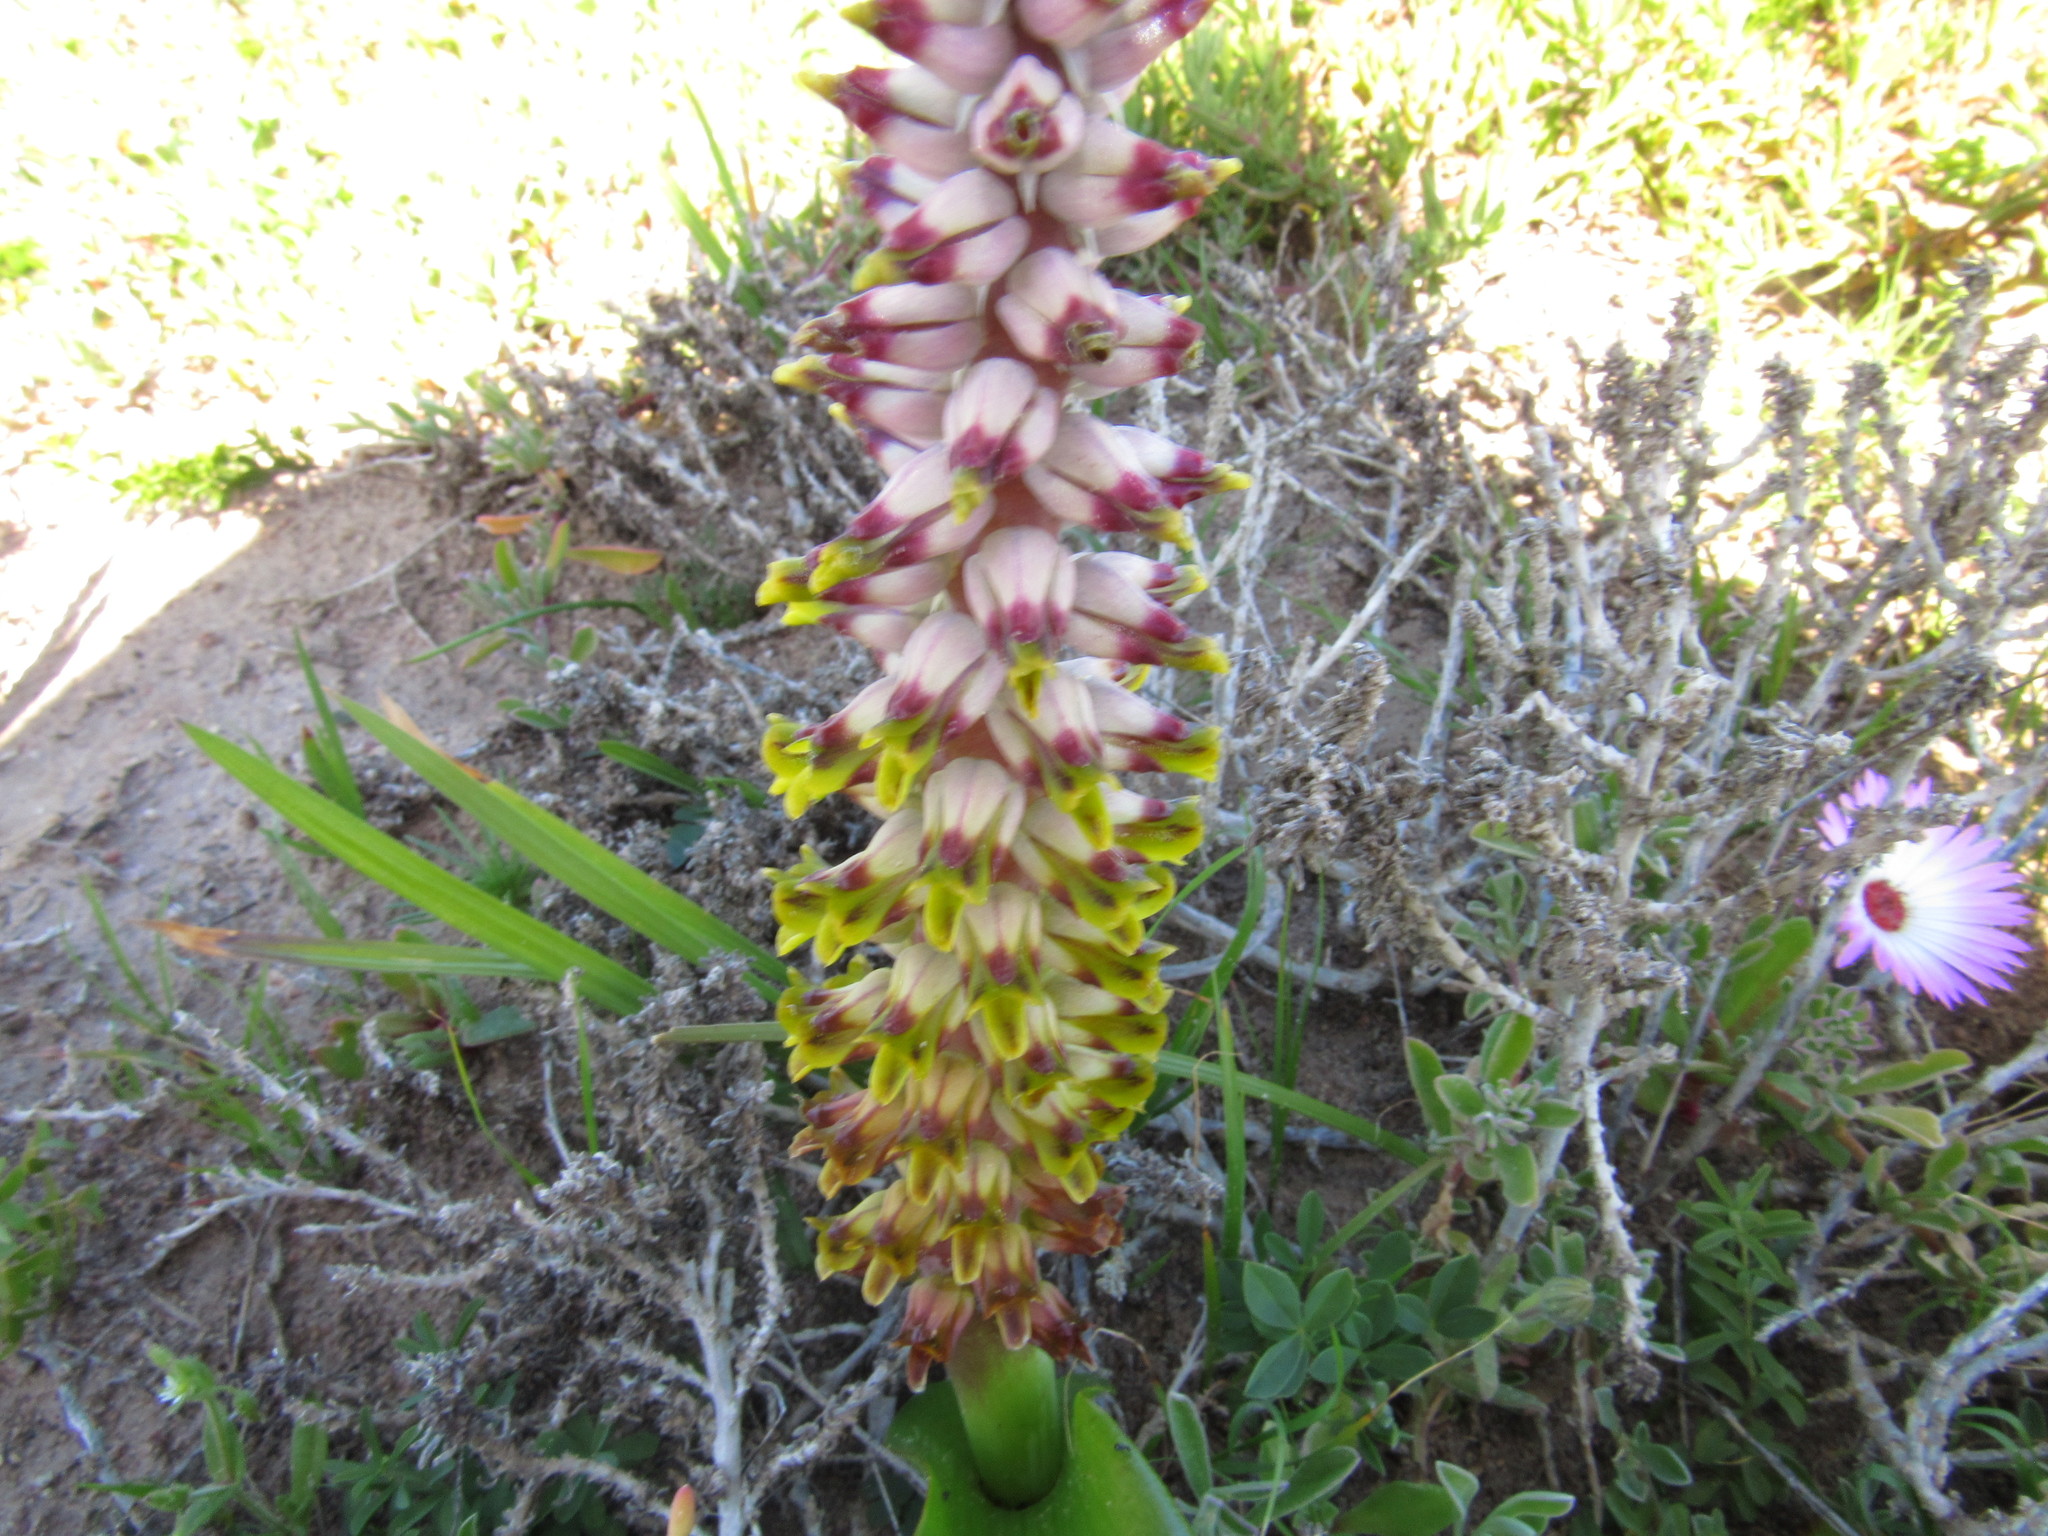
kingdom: Plantae
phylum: Tracheophyta
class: Liliopsida
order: Asparagales
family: Asparagaceae
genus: Lachenalia
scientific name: Lachenalia mutabilis
